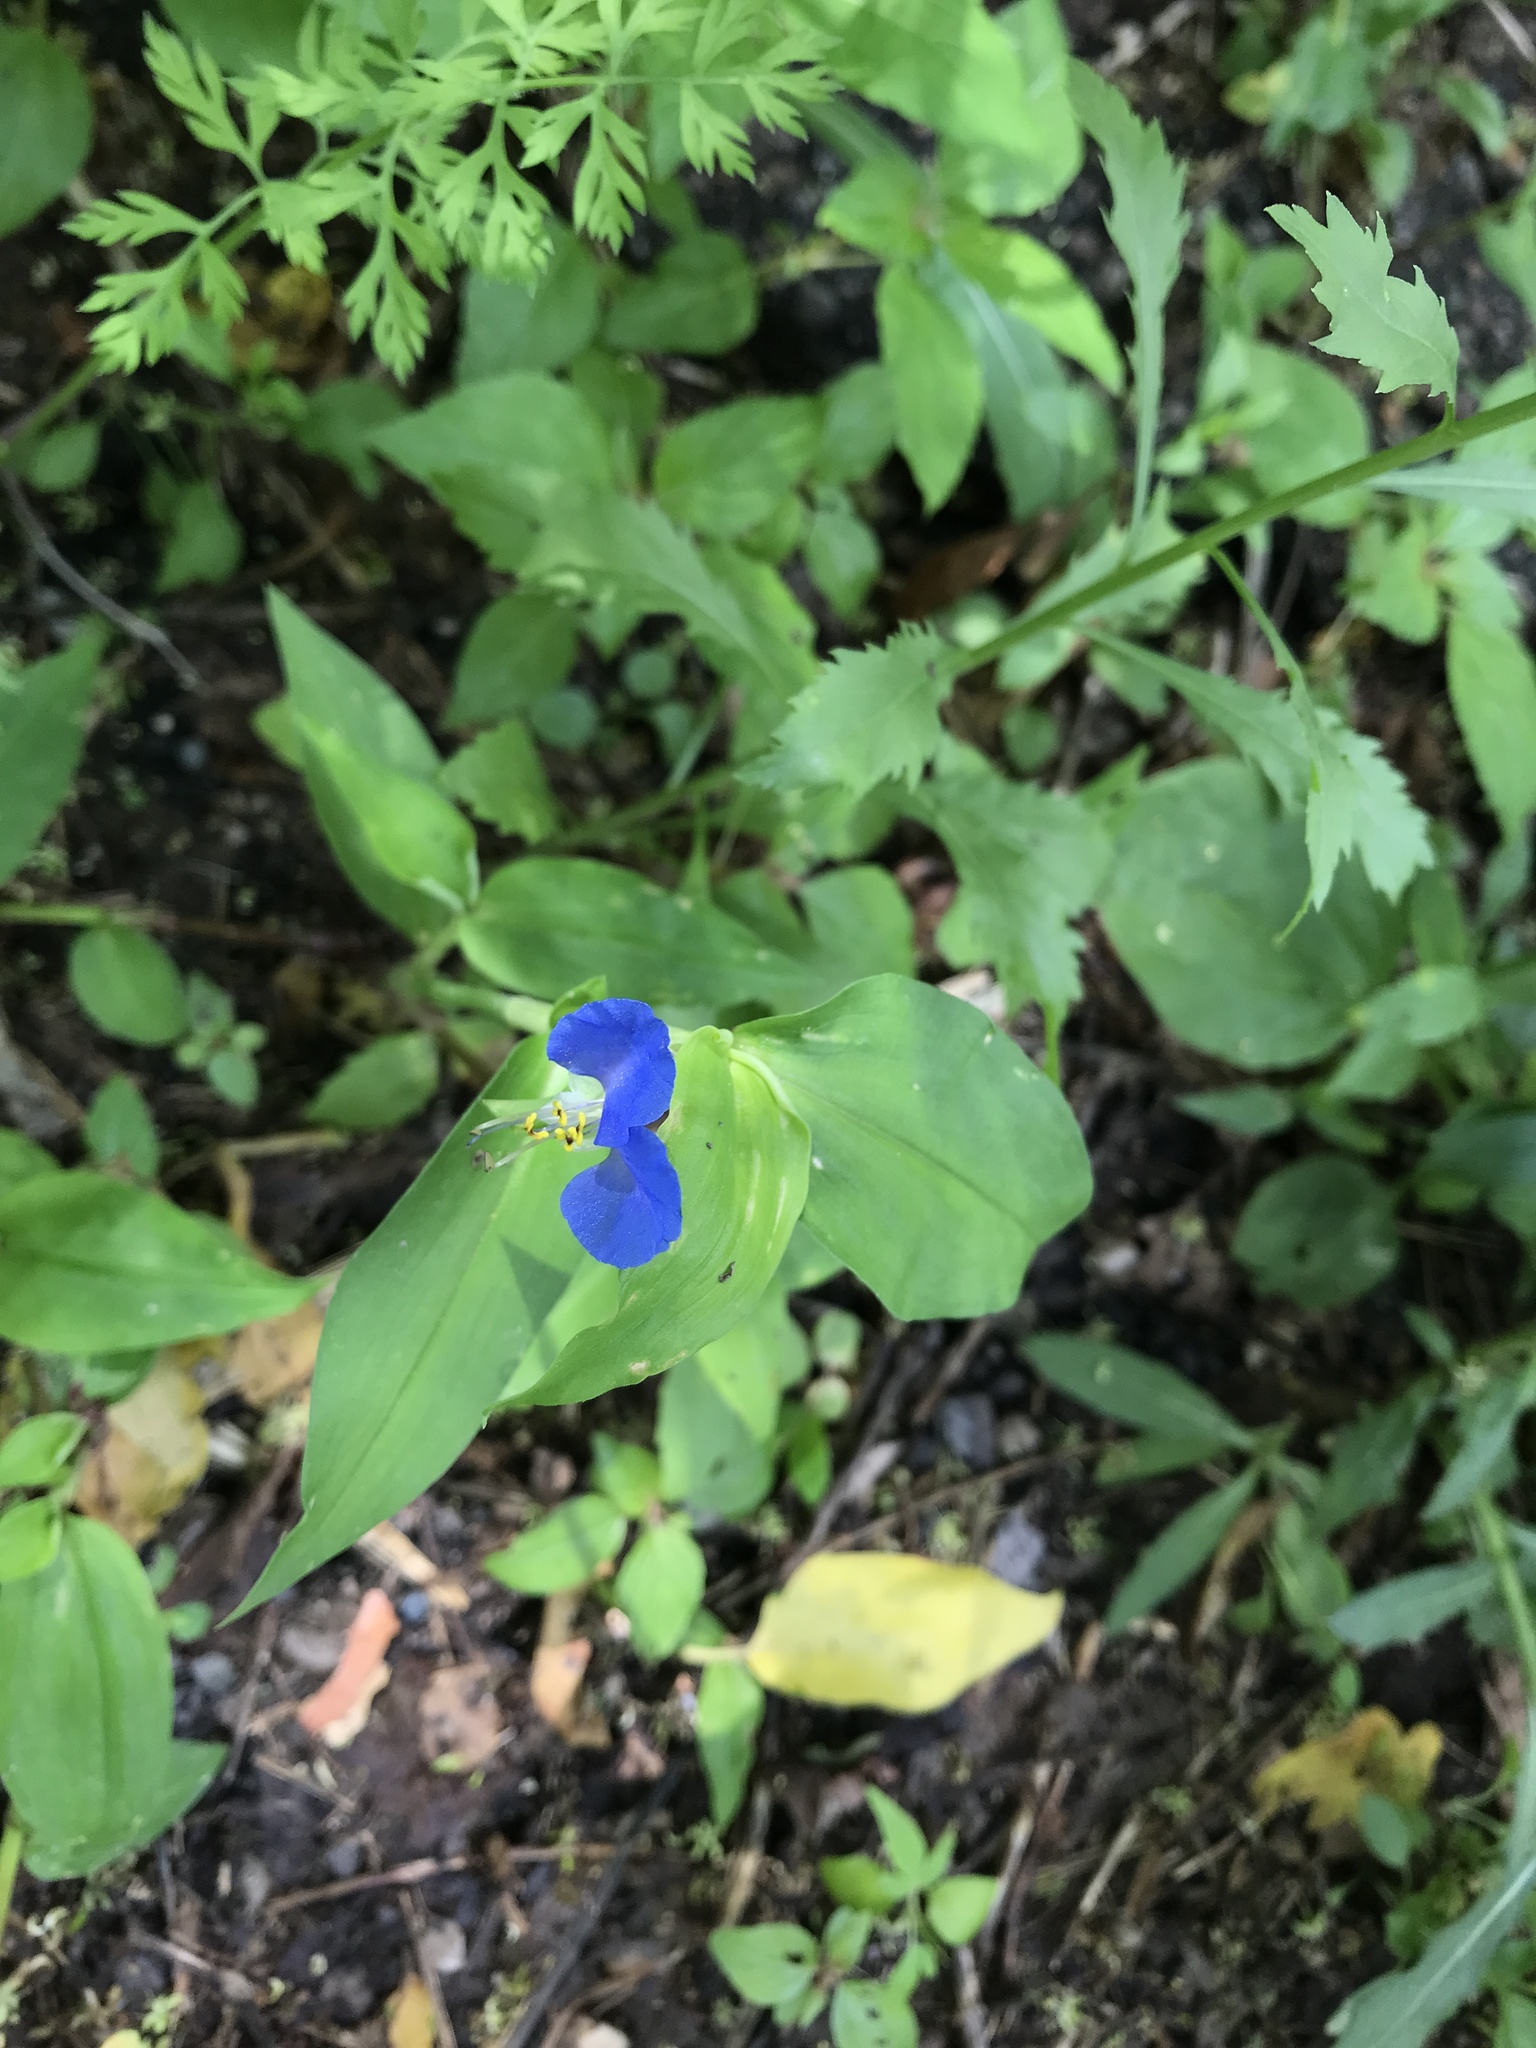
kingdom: Plantae
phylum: Tracheophyta
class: Liliopsida
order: Commelinales
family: Commelinaceae
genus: Commelina
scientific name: Commelina communis
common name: Asiatic dayflower
